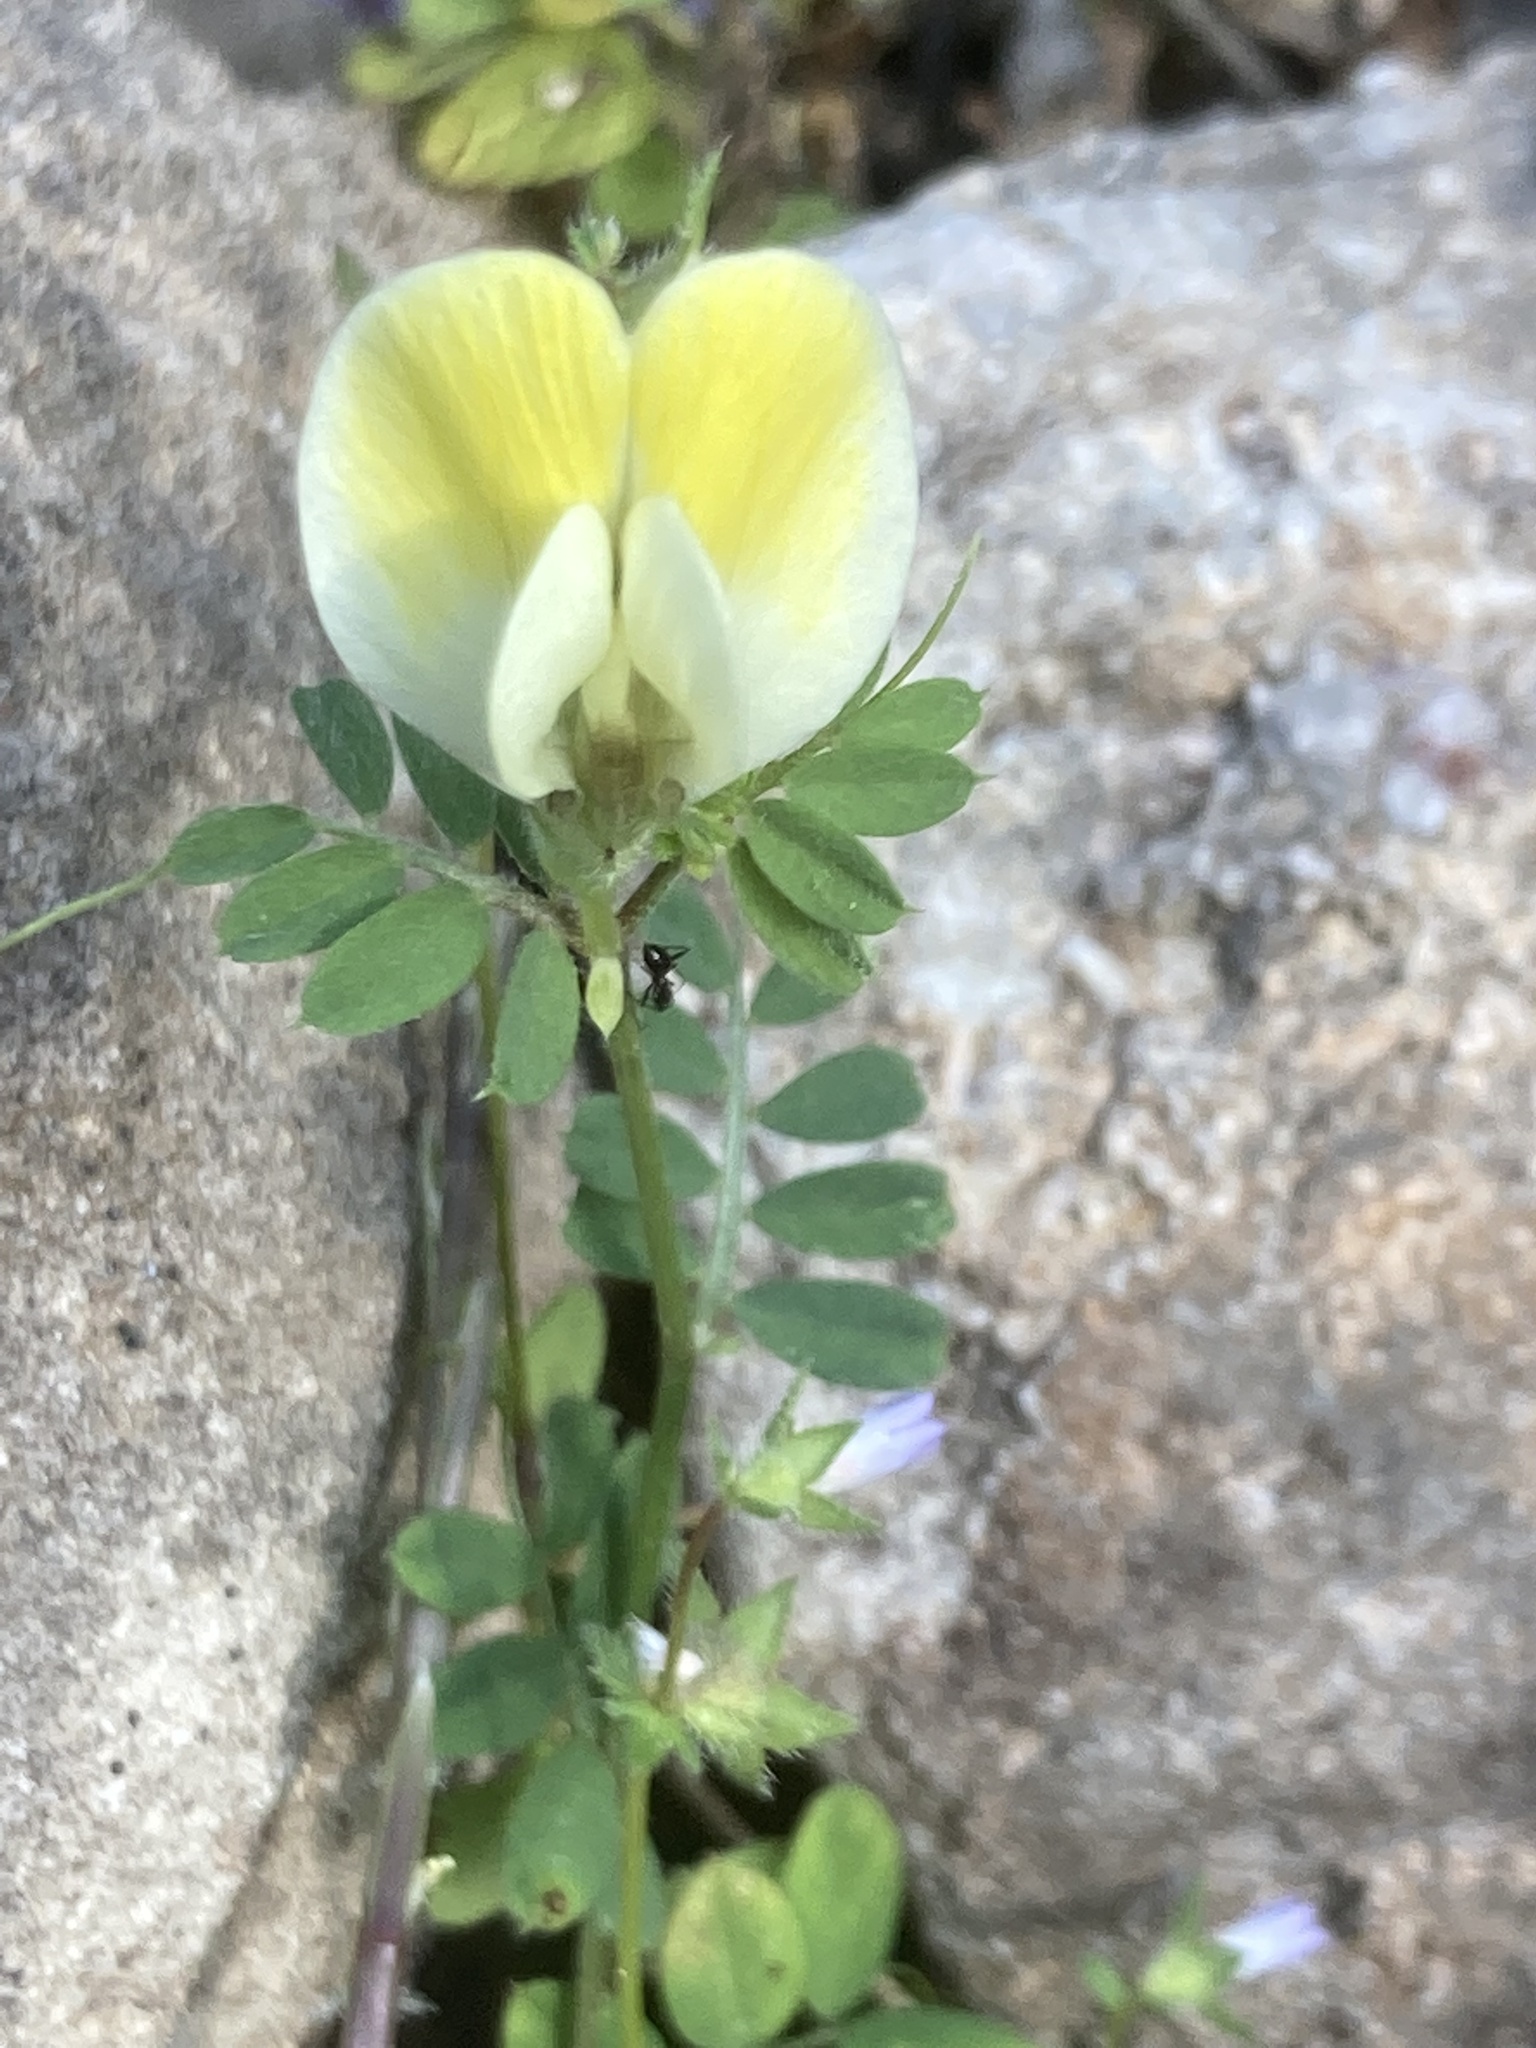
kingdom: Plantae
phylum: Tracheophyta
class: Magnoliopsida
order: Fabales
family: Fabaceae
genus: Vicia
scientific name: Vicia hybrida
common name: Hairy yellow vetch
